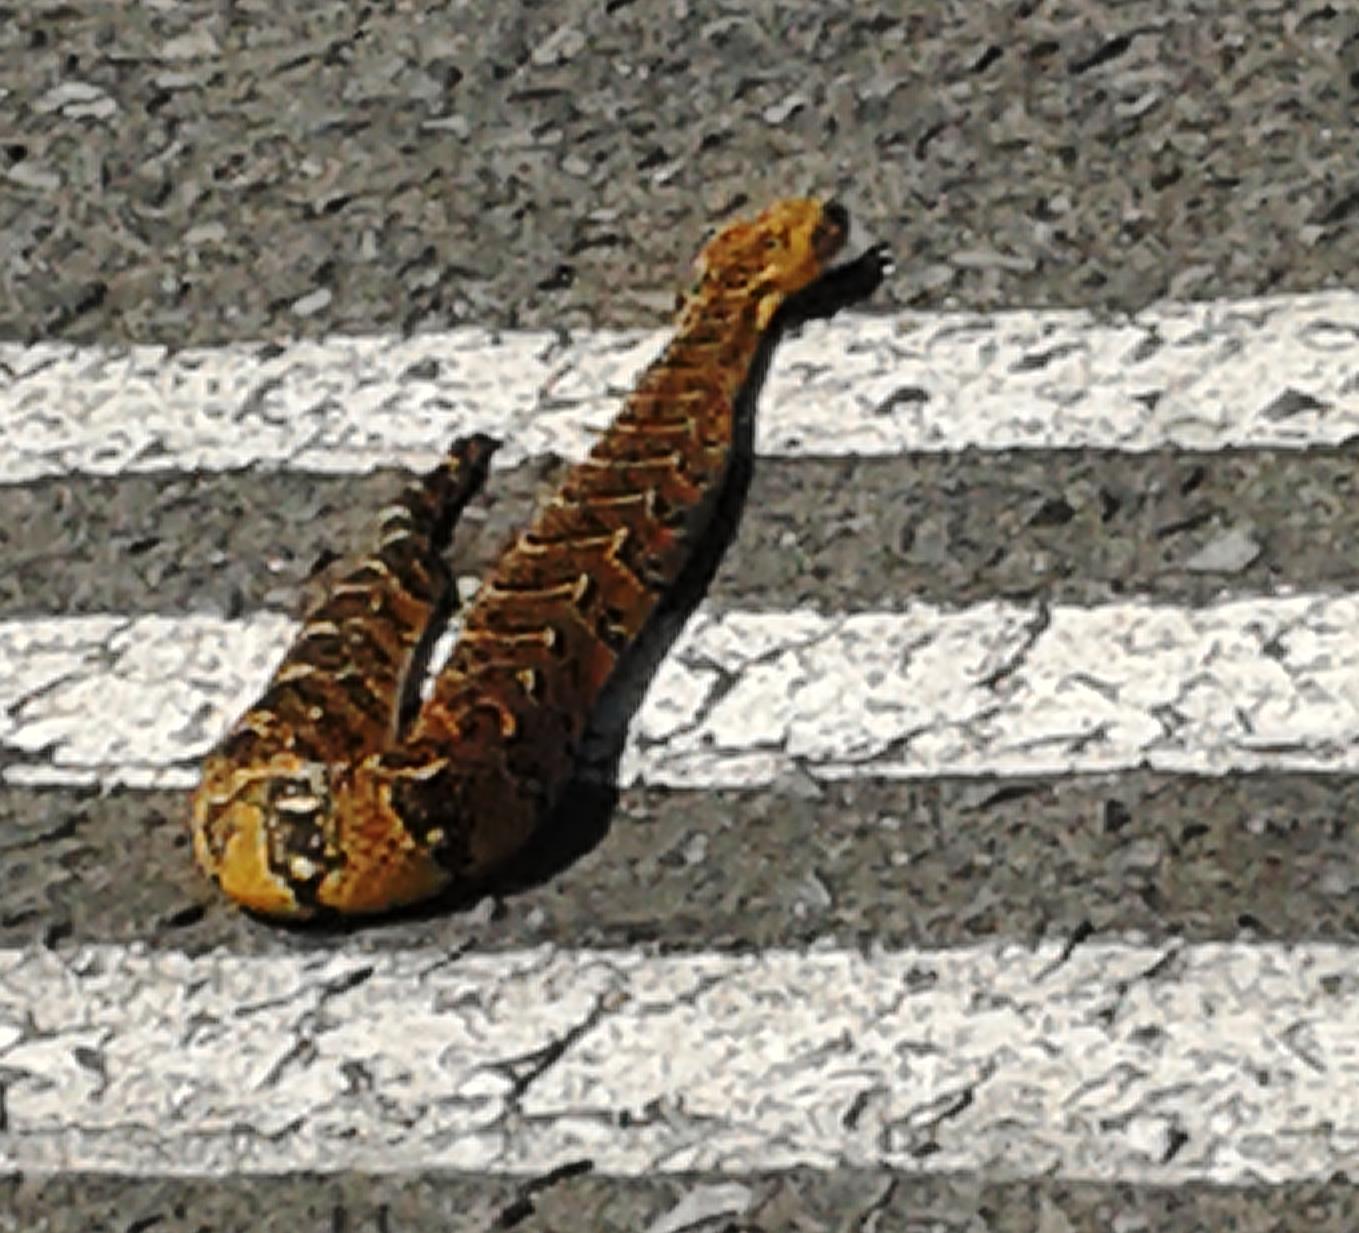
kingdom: Animalia
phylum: Chordata
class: Squamata
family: Viperidae
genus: Bitis
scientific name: Bitis arietans
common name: Puff adder
